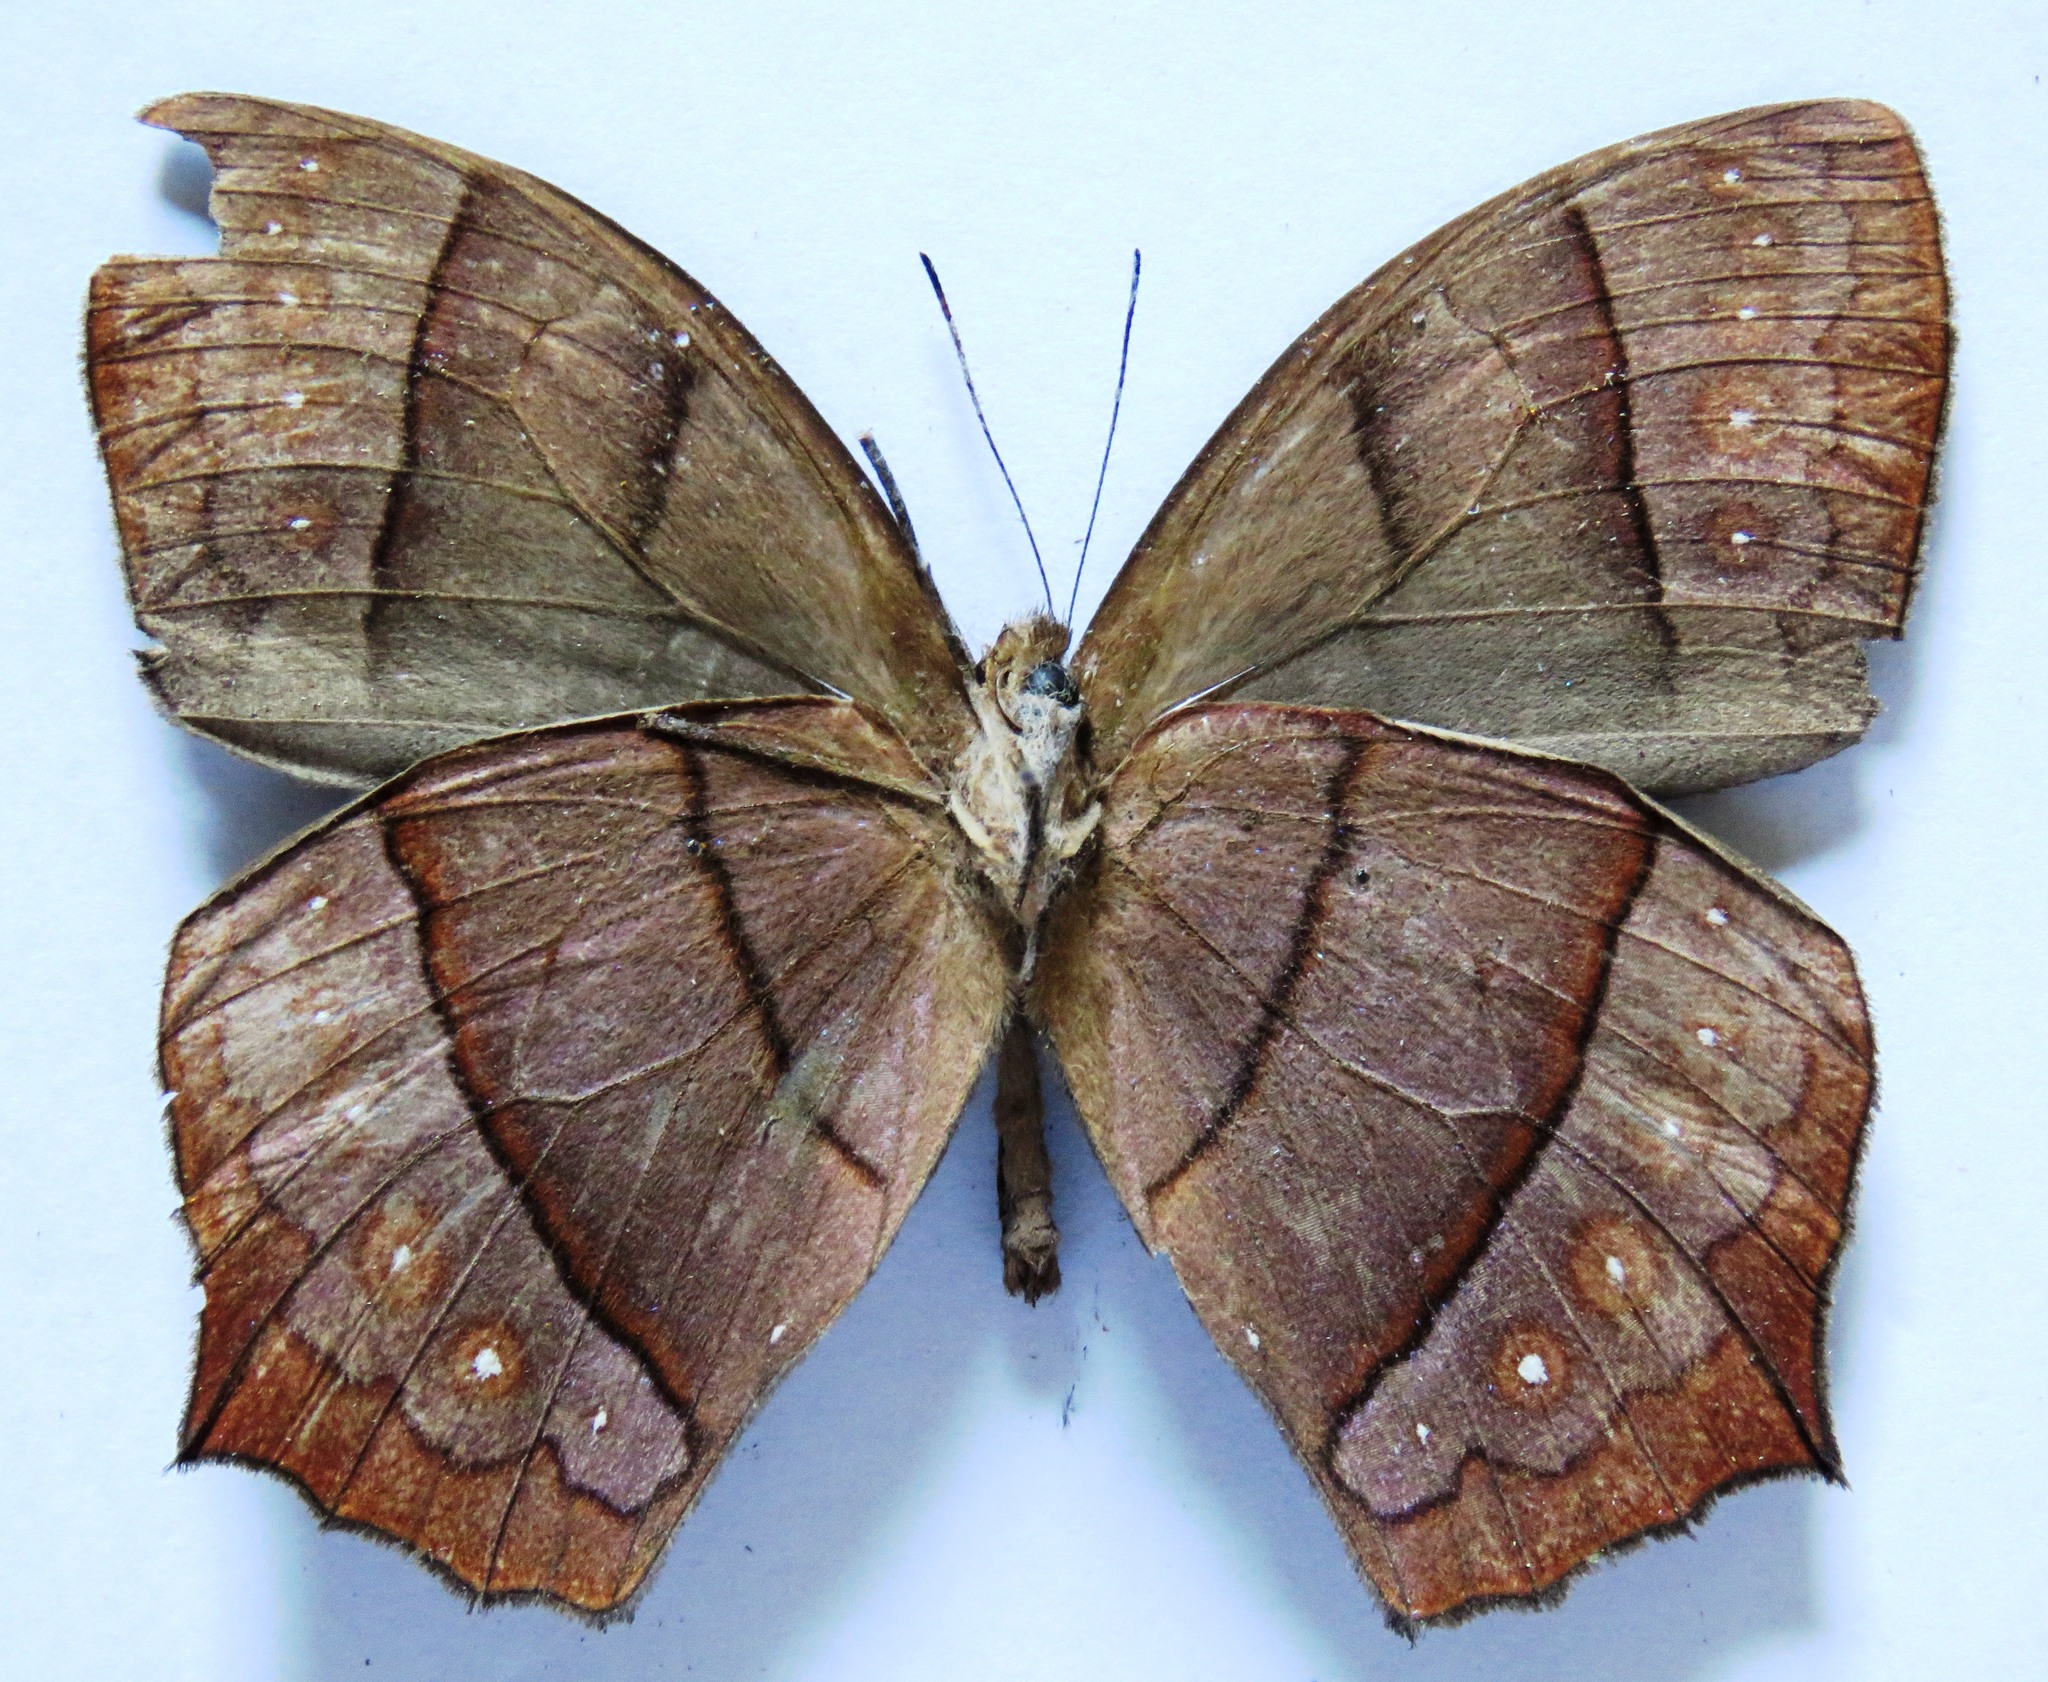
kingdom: Animalia
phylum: Arthropoda
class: Insecta
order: Lepidoptera
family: Nymphalidae
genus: Taygetis
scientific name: Taygetis virgilia
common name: Stub-tailed satyr
